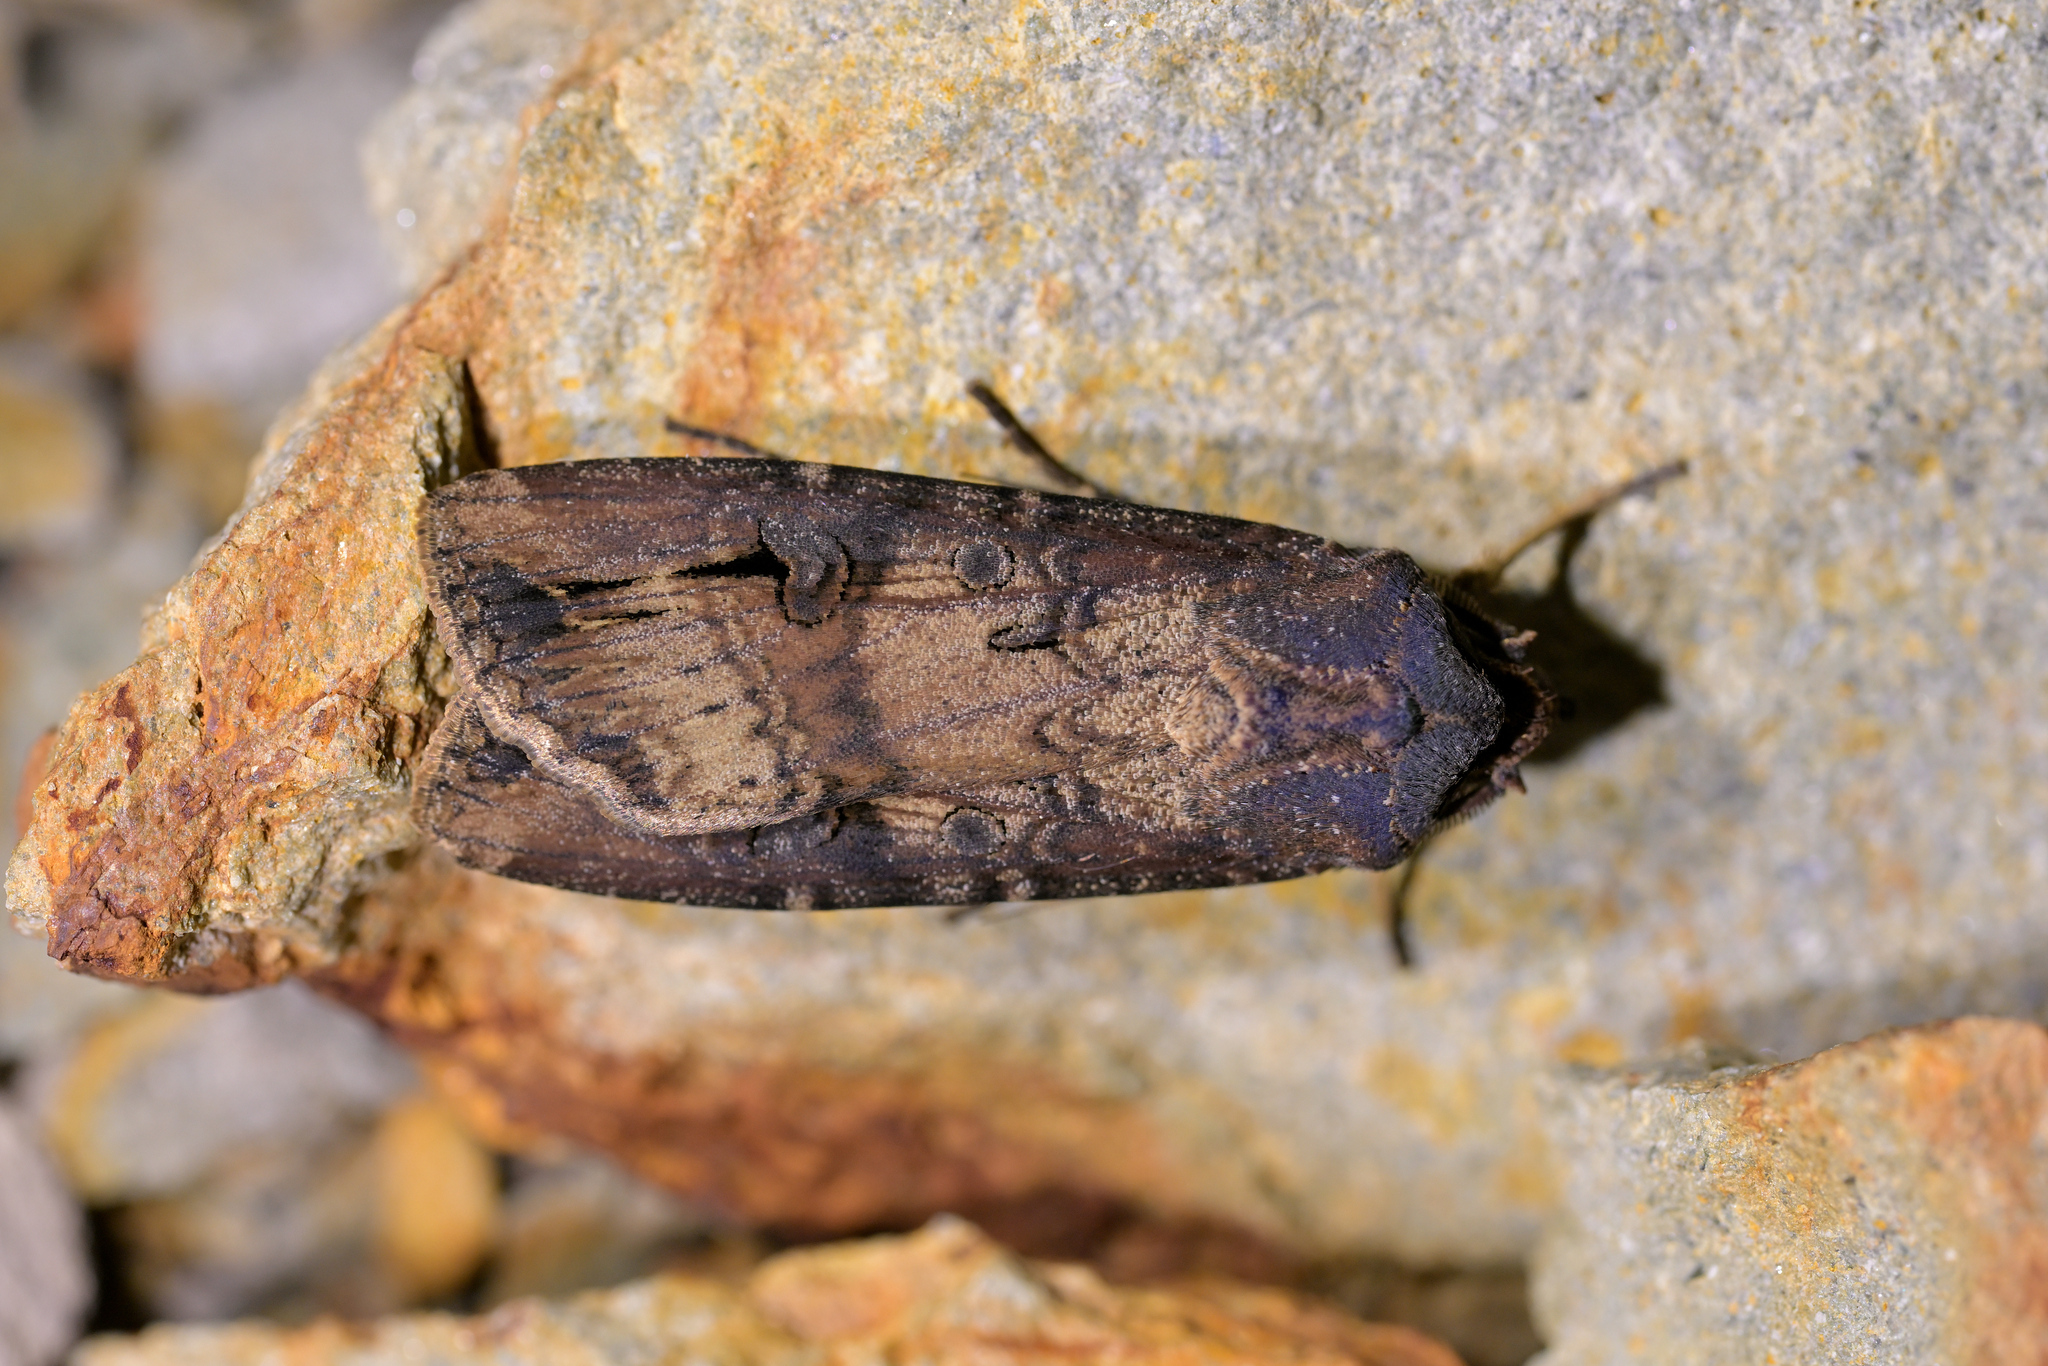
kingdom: Animalia
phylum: Arthropoda
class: Insecta
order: Lepidoptera
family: Noctuidae
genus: Agrotis
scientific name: Agrotis ipsilon
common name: Dark sword-grass
